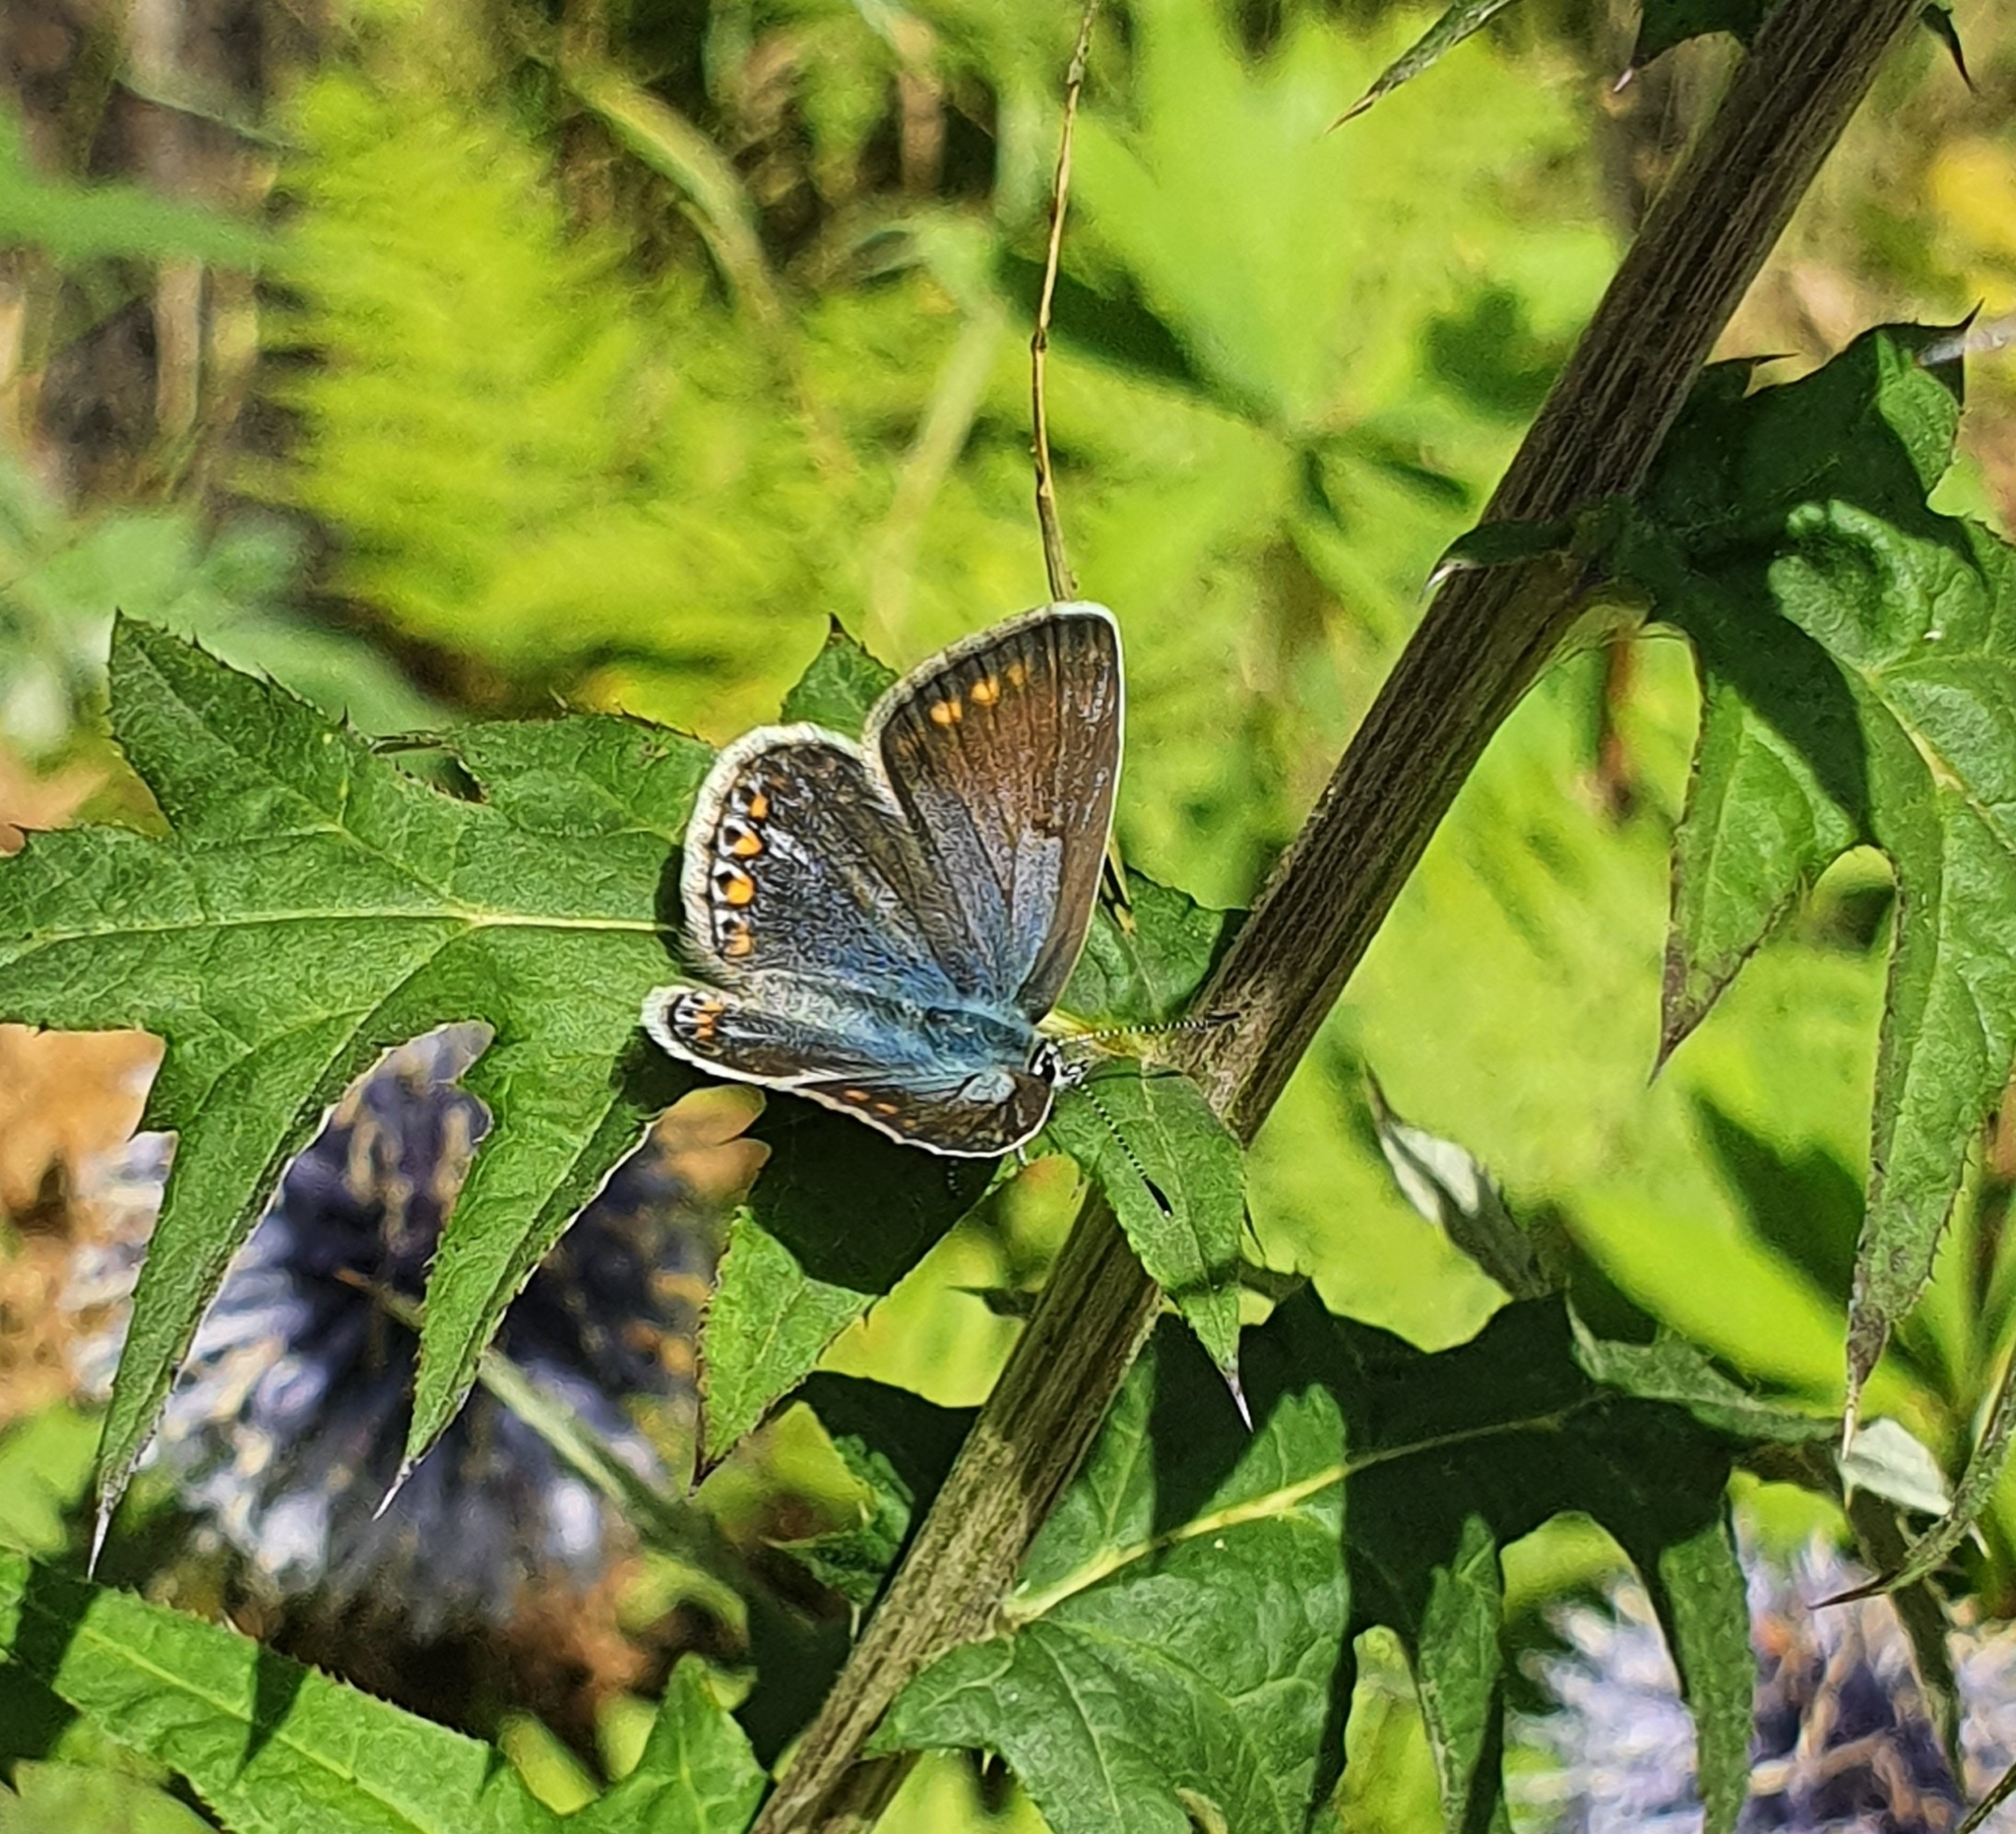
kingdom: Animalia
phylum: Arthropoda
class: Insecta
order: Lepidoptera
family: Lycaenidae
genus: Polyommatus
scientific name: Polyommatus icarus
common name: Common blue
